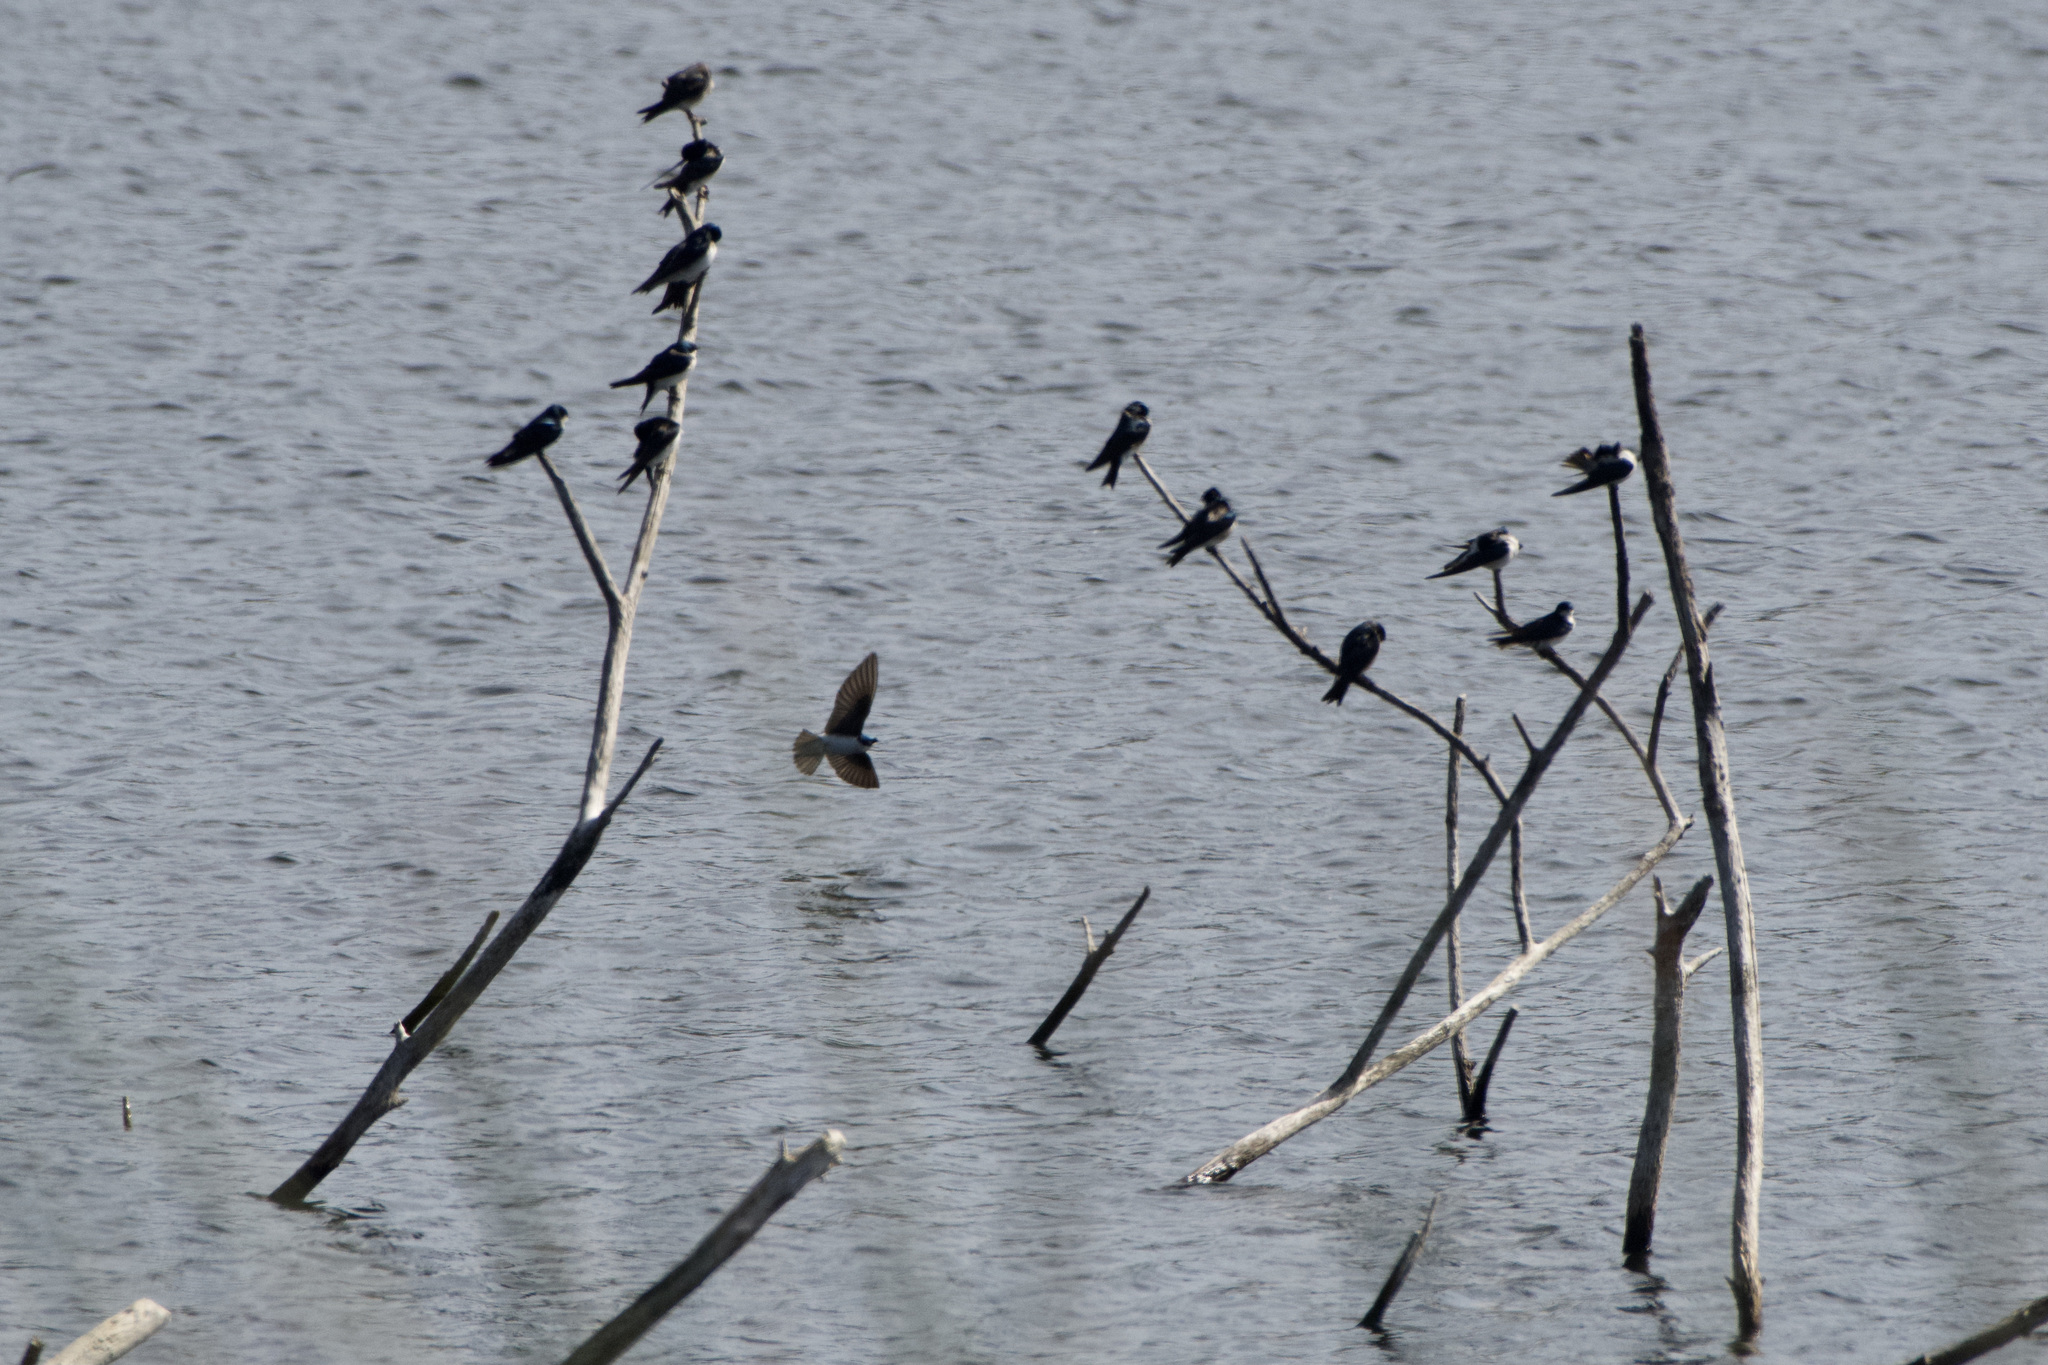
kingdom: Animalia
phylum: Chordata
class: Aves
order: Passeriformes
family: Hirundinidae
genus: Tachycineta
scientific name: Tachycineta bicolor
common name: Tree swallow
